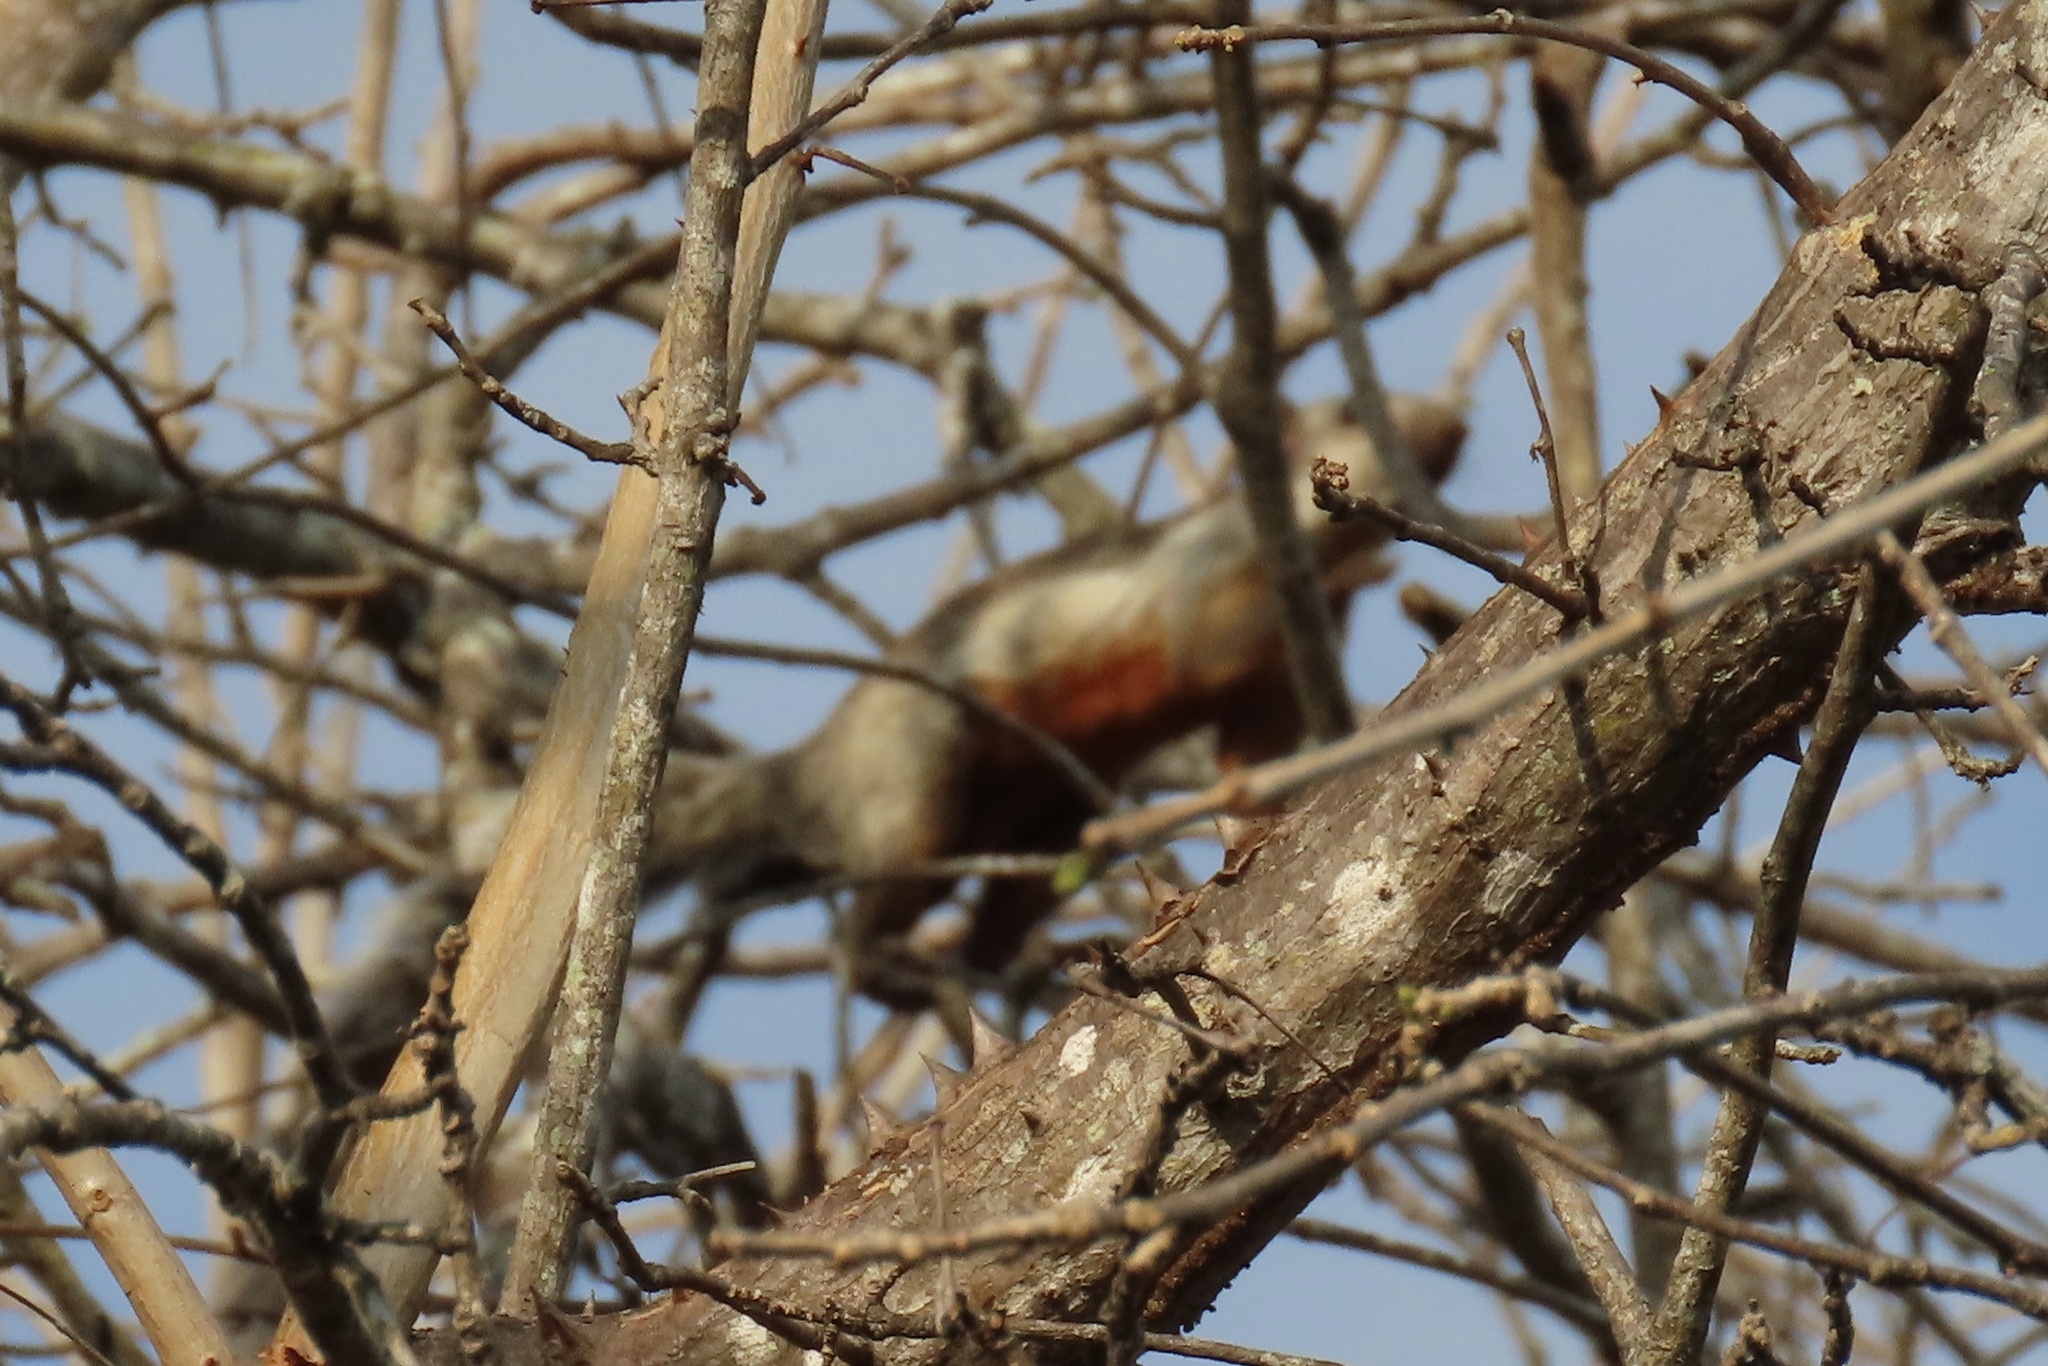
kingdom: Animalia
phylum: Chordata
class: Mammalia
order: Rodentia
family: Sciuridae
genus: Sciurus
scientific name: Sciurus variegatoides
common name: Variegated squirrel
